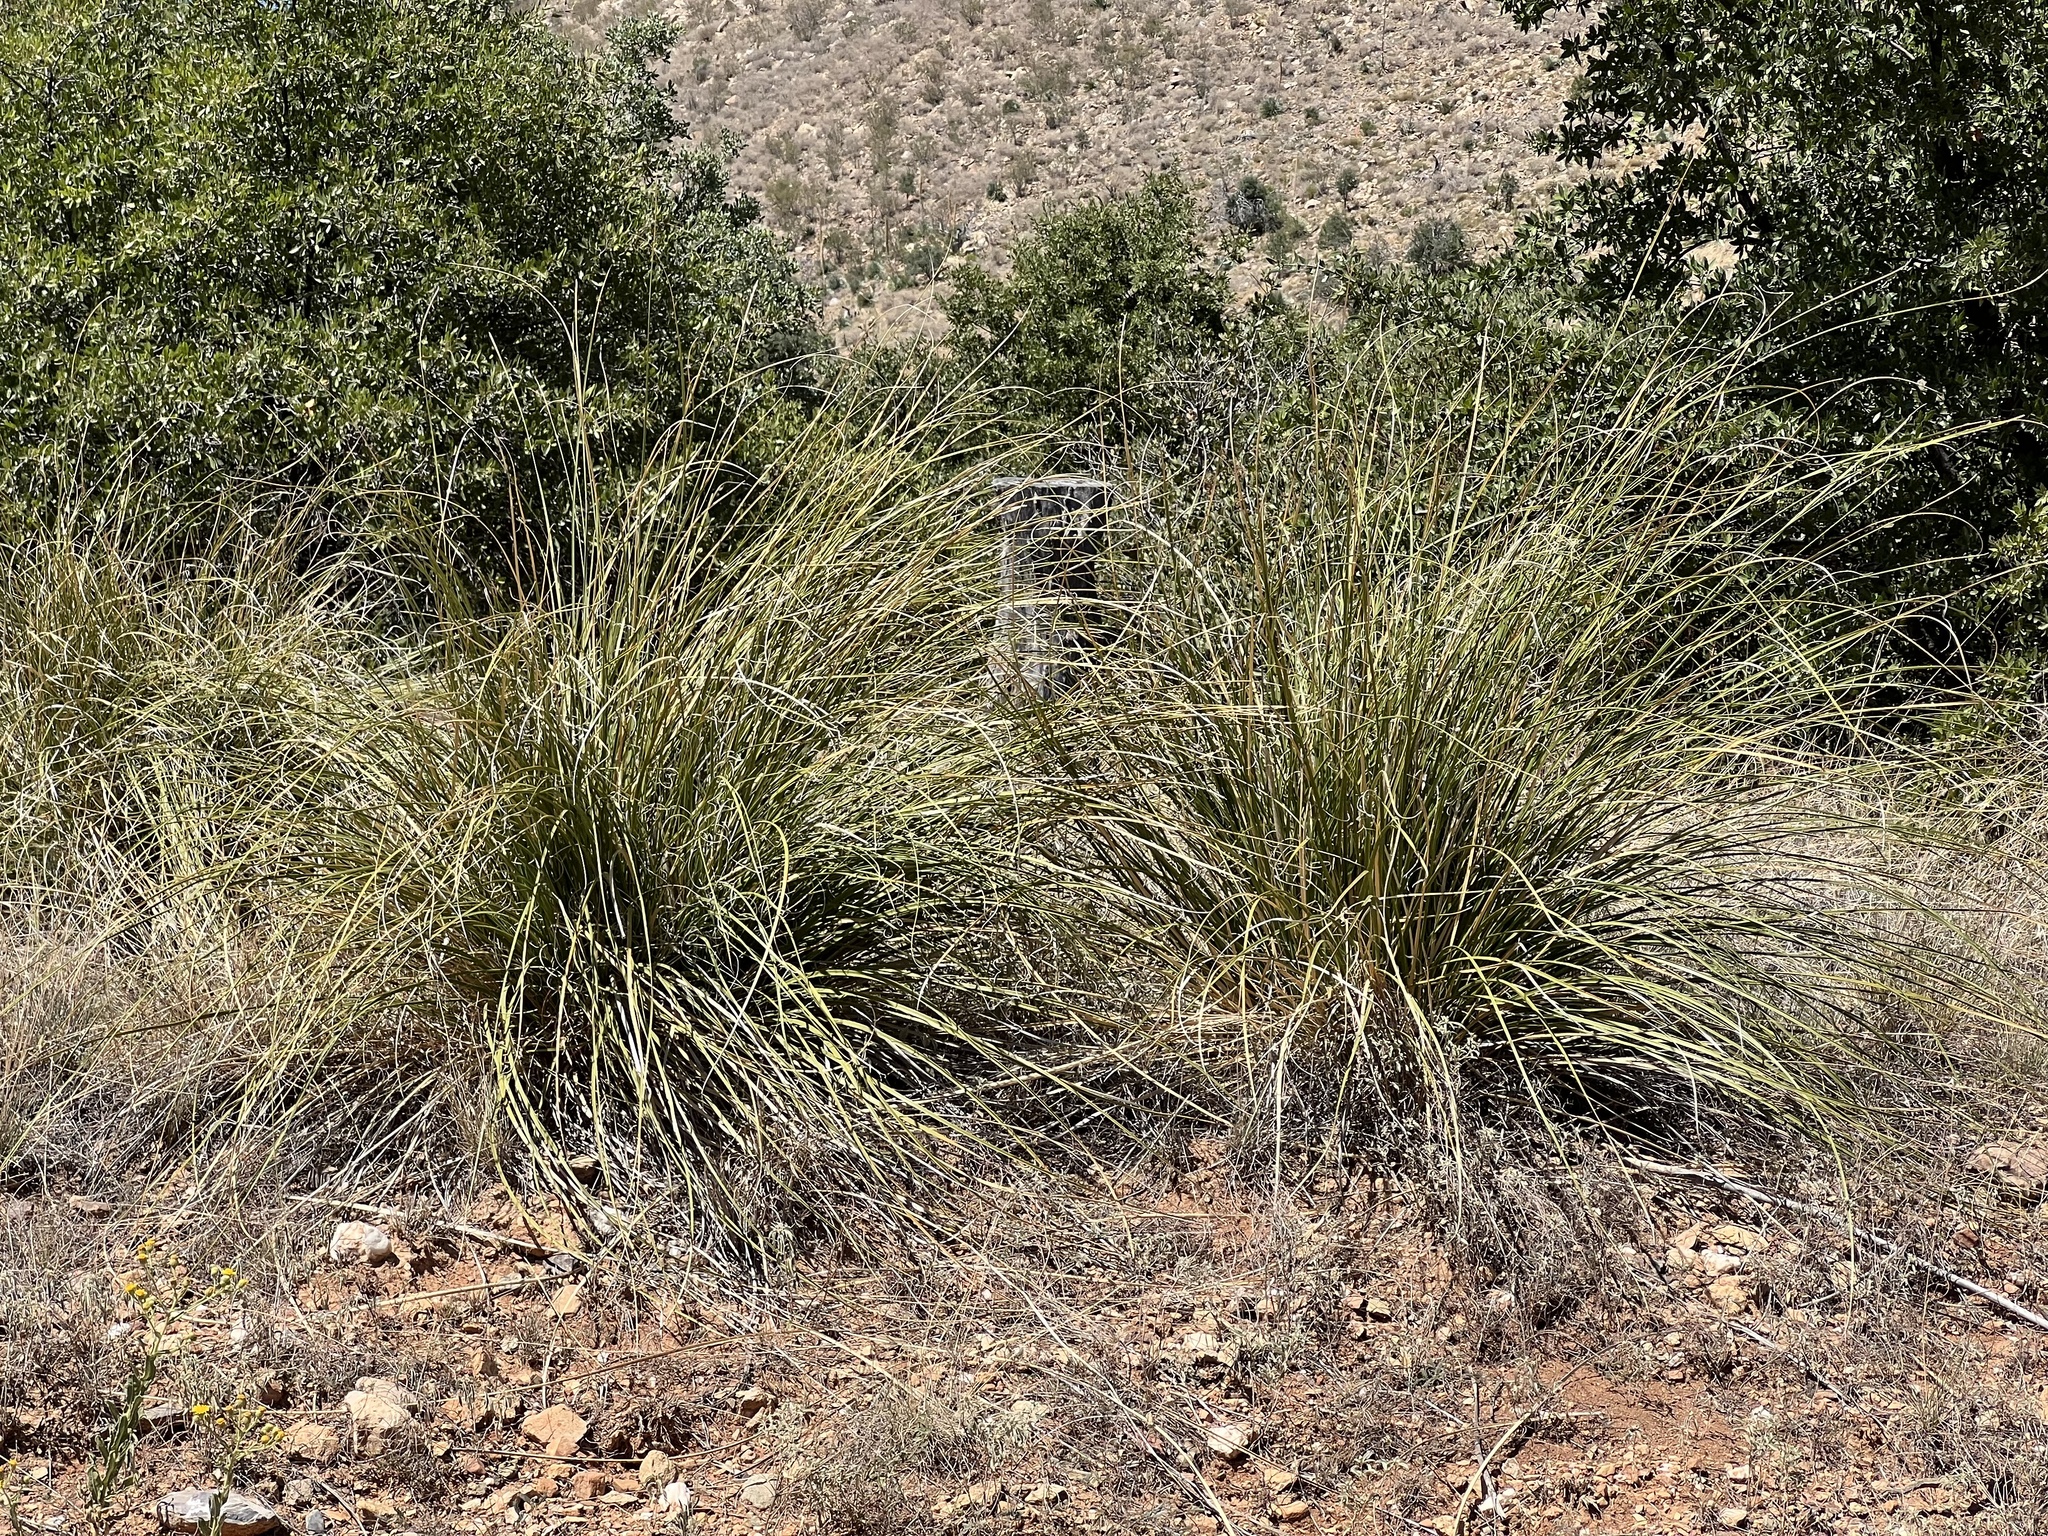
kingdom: Plantae
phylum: Tracheophyta
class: Liliopsida
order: Asparagales
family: Asparagaceae
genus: Nolina
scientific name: Nolina microcarpa
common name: Bear-grass
